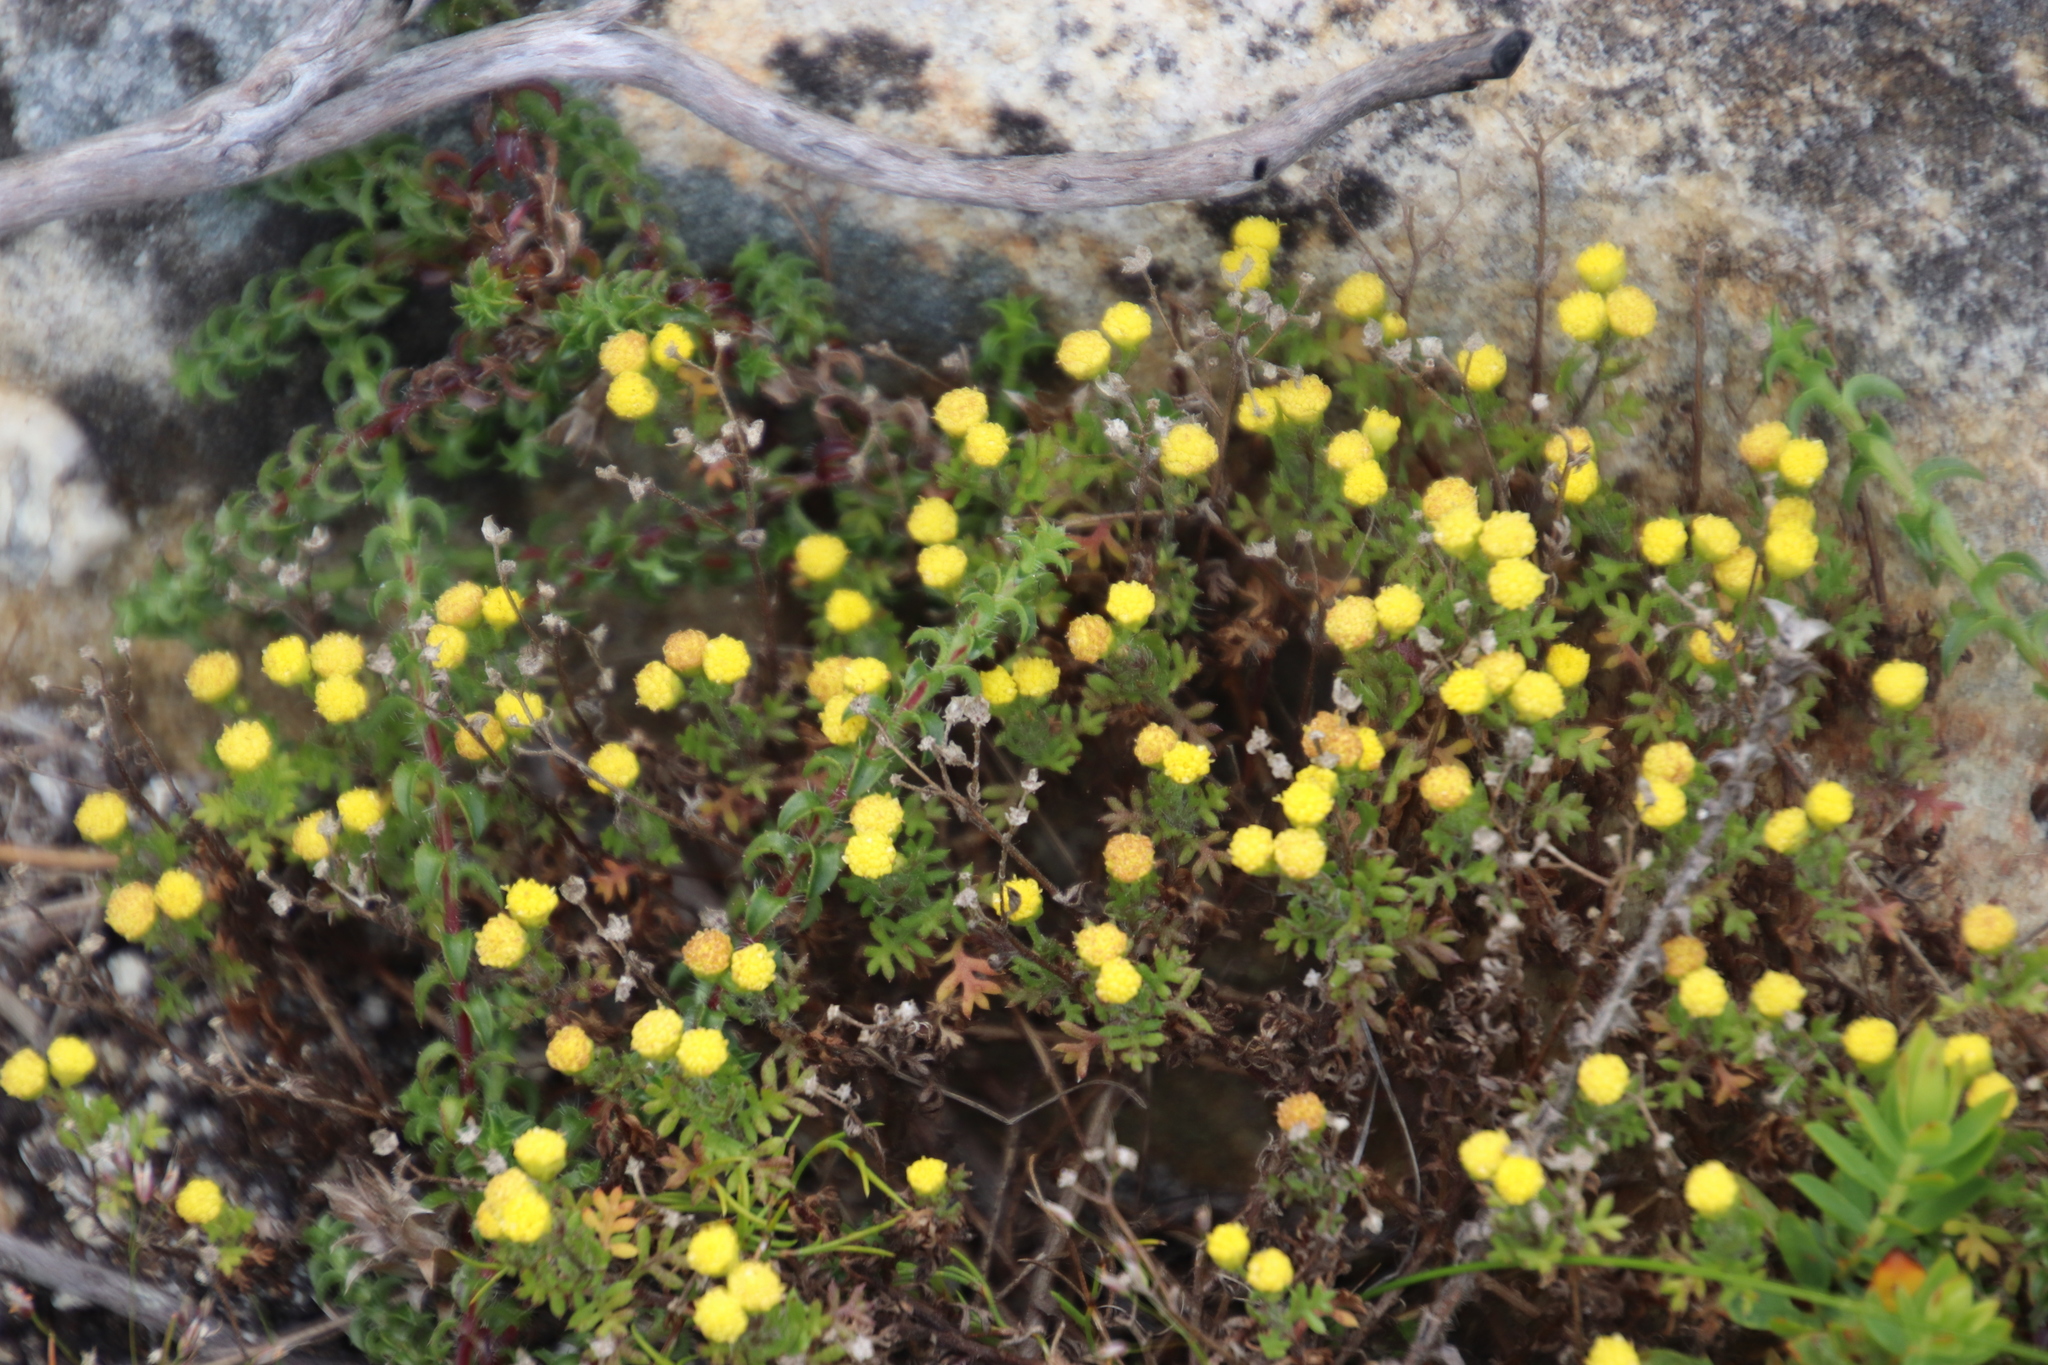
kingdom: Plantae
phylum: Tracheophyta
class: Magnoliopsida
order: Asterales
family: Asteraceae
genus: Hippia
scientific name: Hippia pilosa
